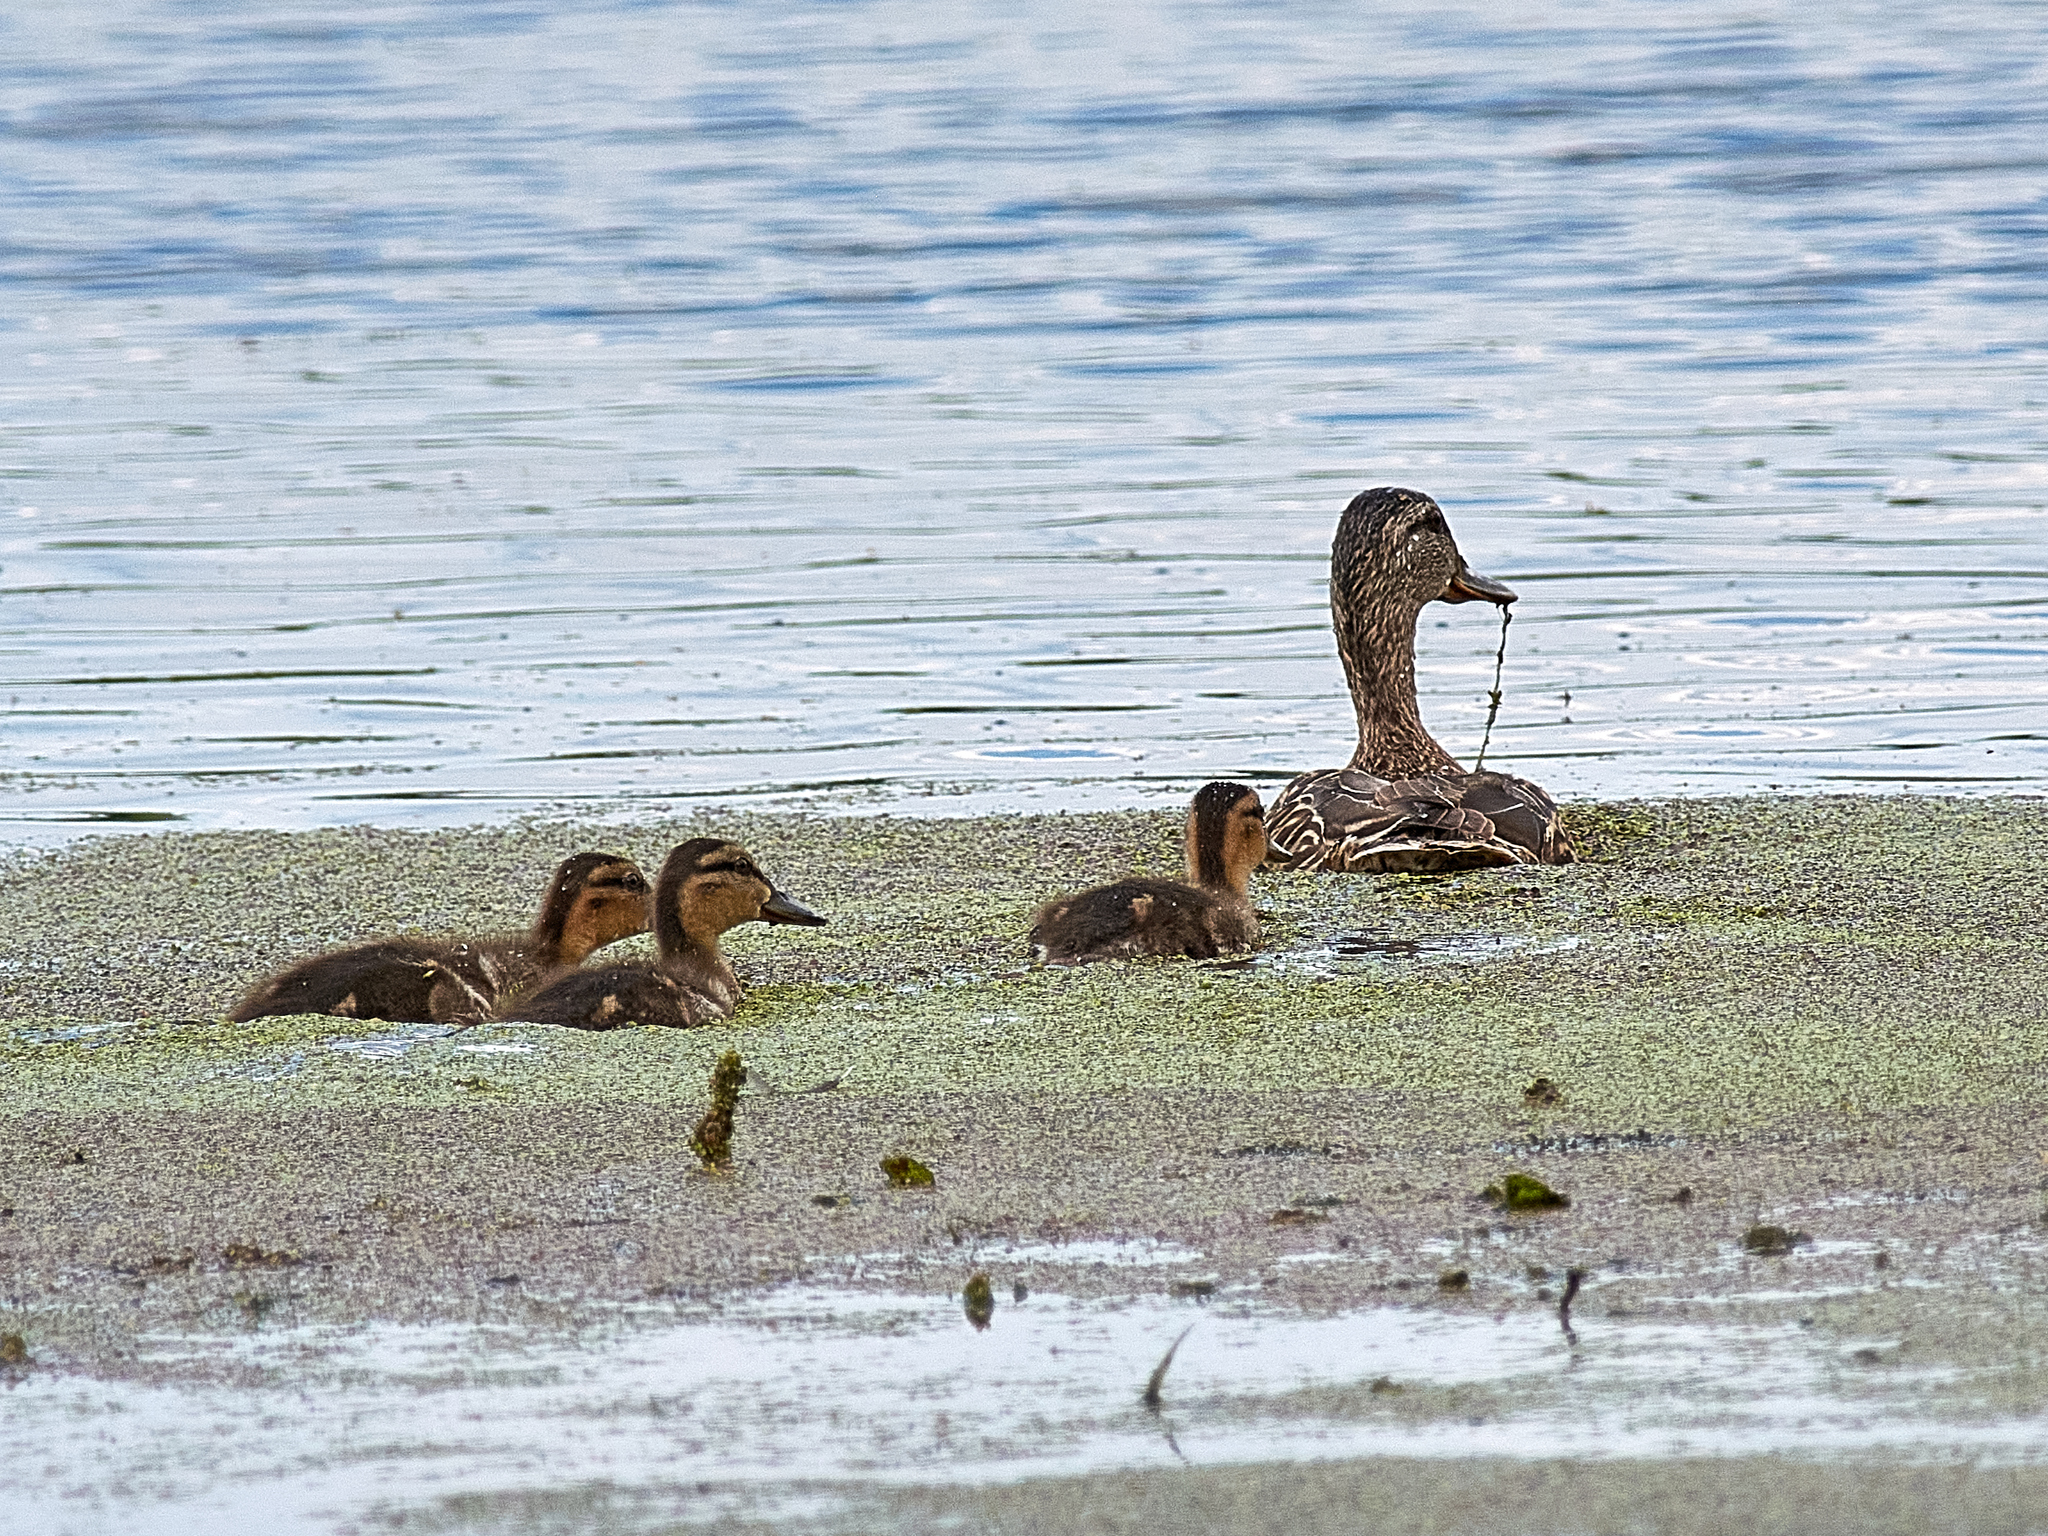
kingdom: Animalia
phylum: Chordata
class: Aves
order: Anseriformes
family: Anatidae
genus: Anas
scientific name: Anas platyrhynchos
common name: Mallard
